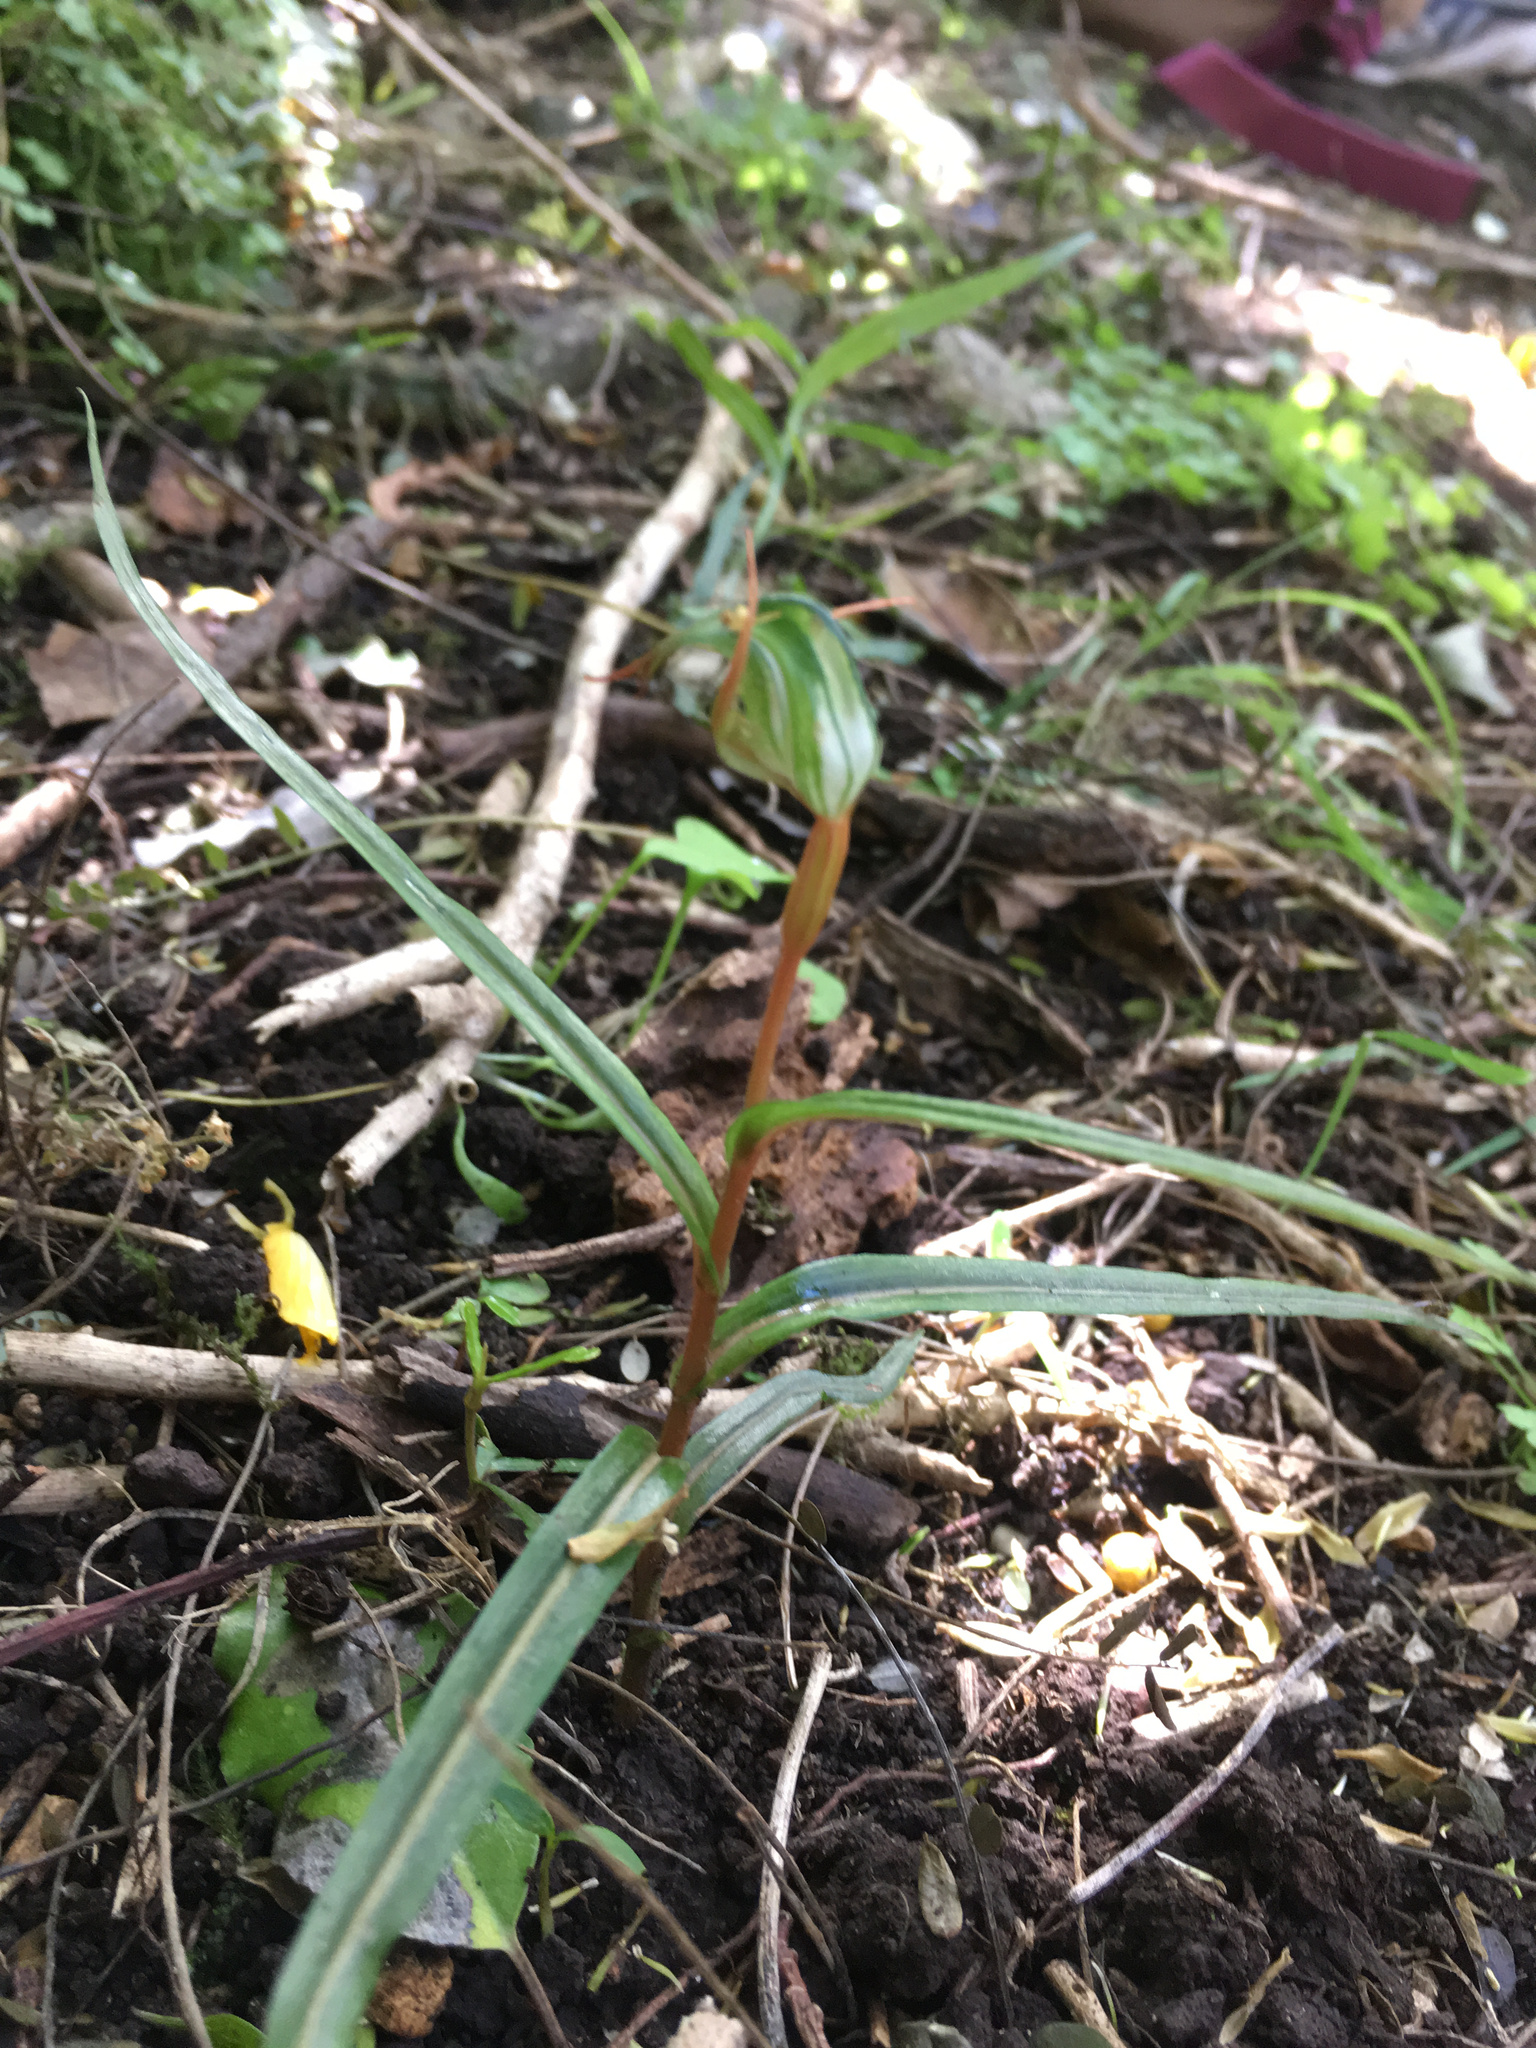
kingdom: Plantae
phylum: Tracheophyta
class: Liliopsida
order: Asparagales
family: Orchidaceae
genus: Pterostylis
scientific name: Pterostylis graminea
